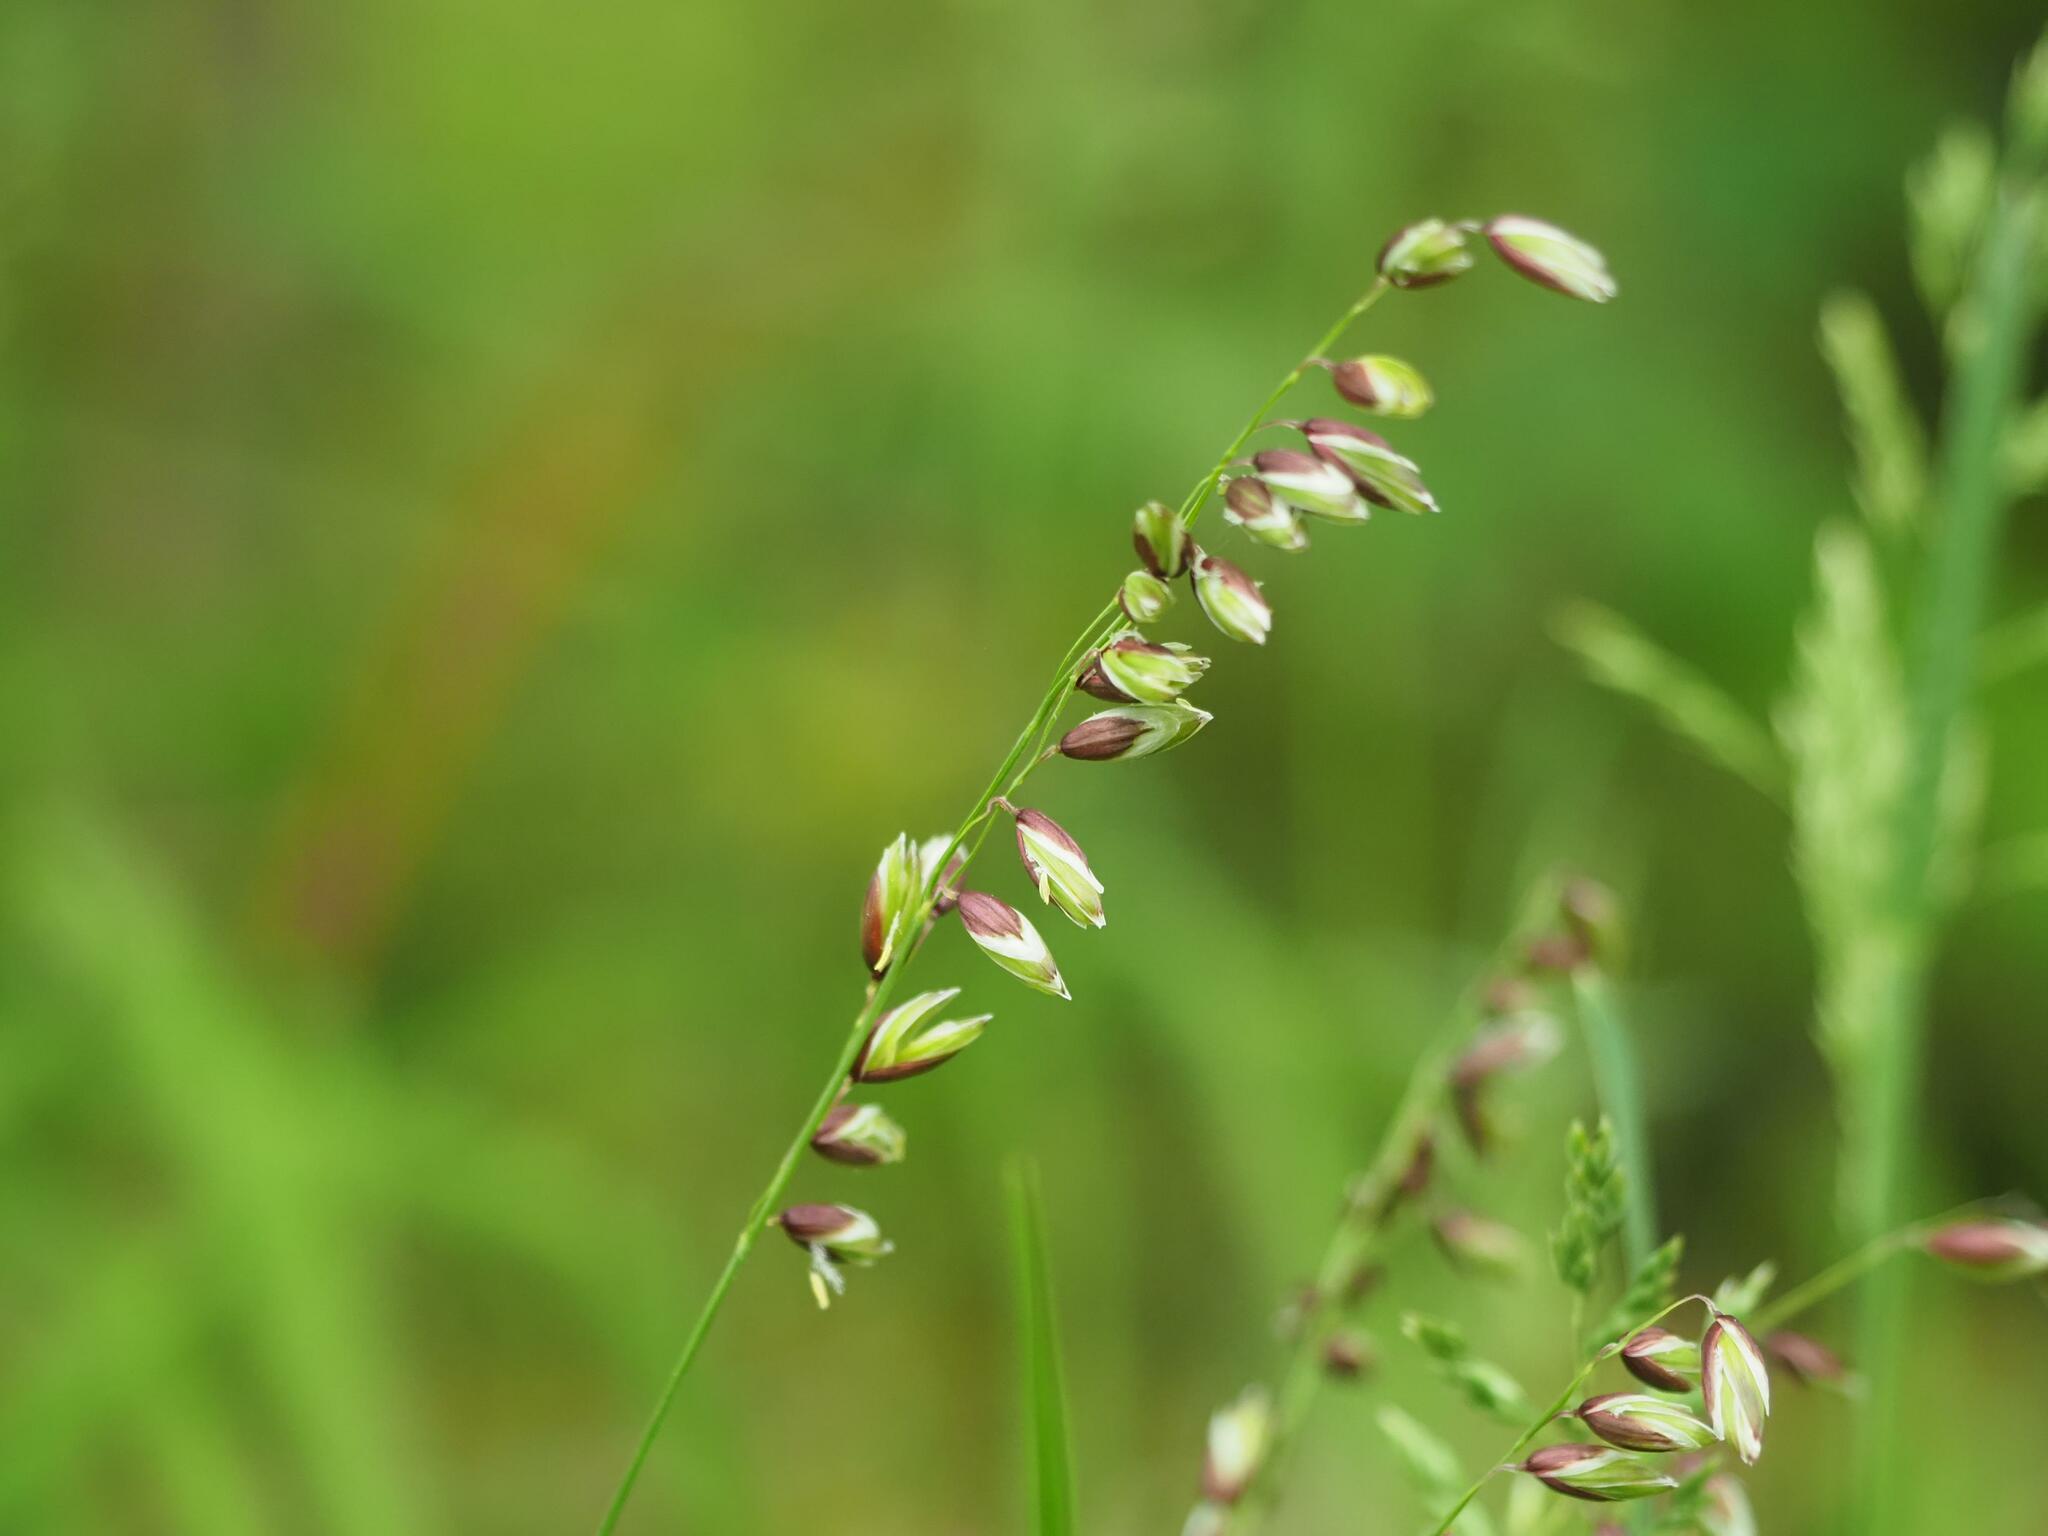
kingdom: Plantae
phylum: Tracheophyta
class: Liliopsida
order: Poales
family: Poaceae
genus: Melica
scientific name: Melica nutans
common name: Mountain melick
